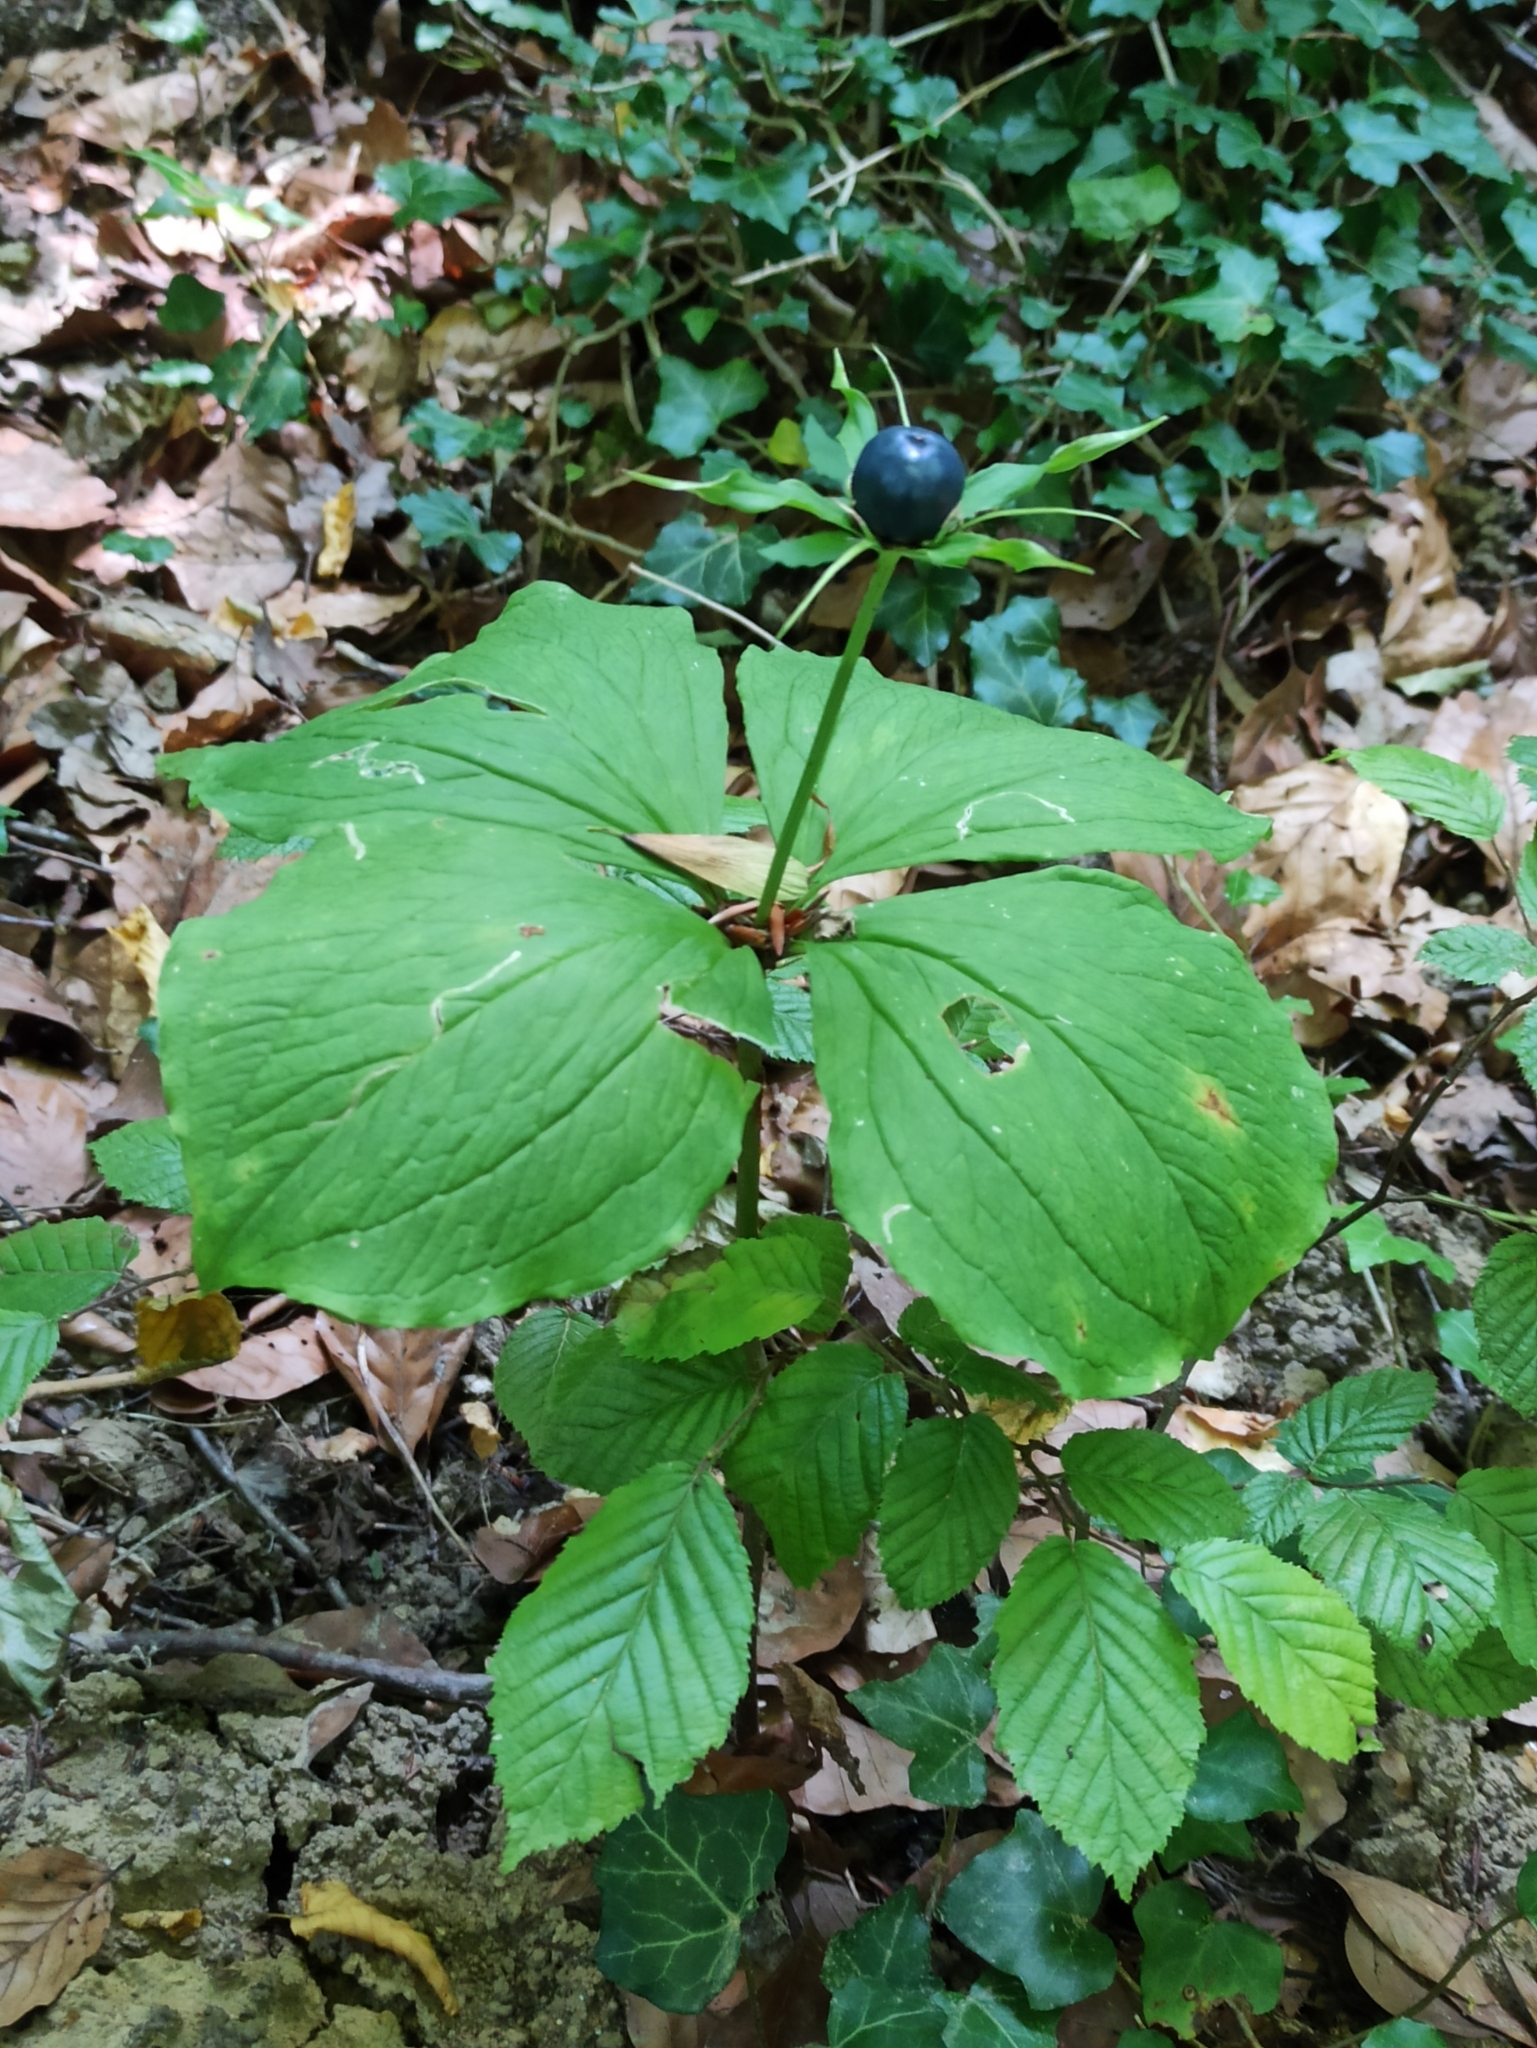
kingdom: Plantae
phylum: Tracheophyta
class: Liliopsida
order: Liliales
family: Melanthiaceae
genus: Paris
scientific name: Paris quadrifolia
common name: Herb-paris
